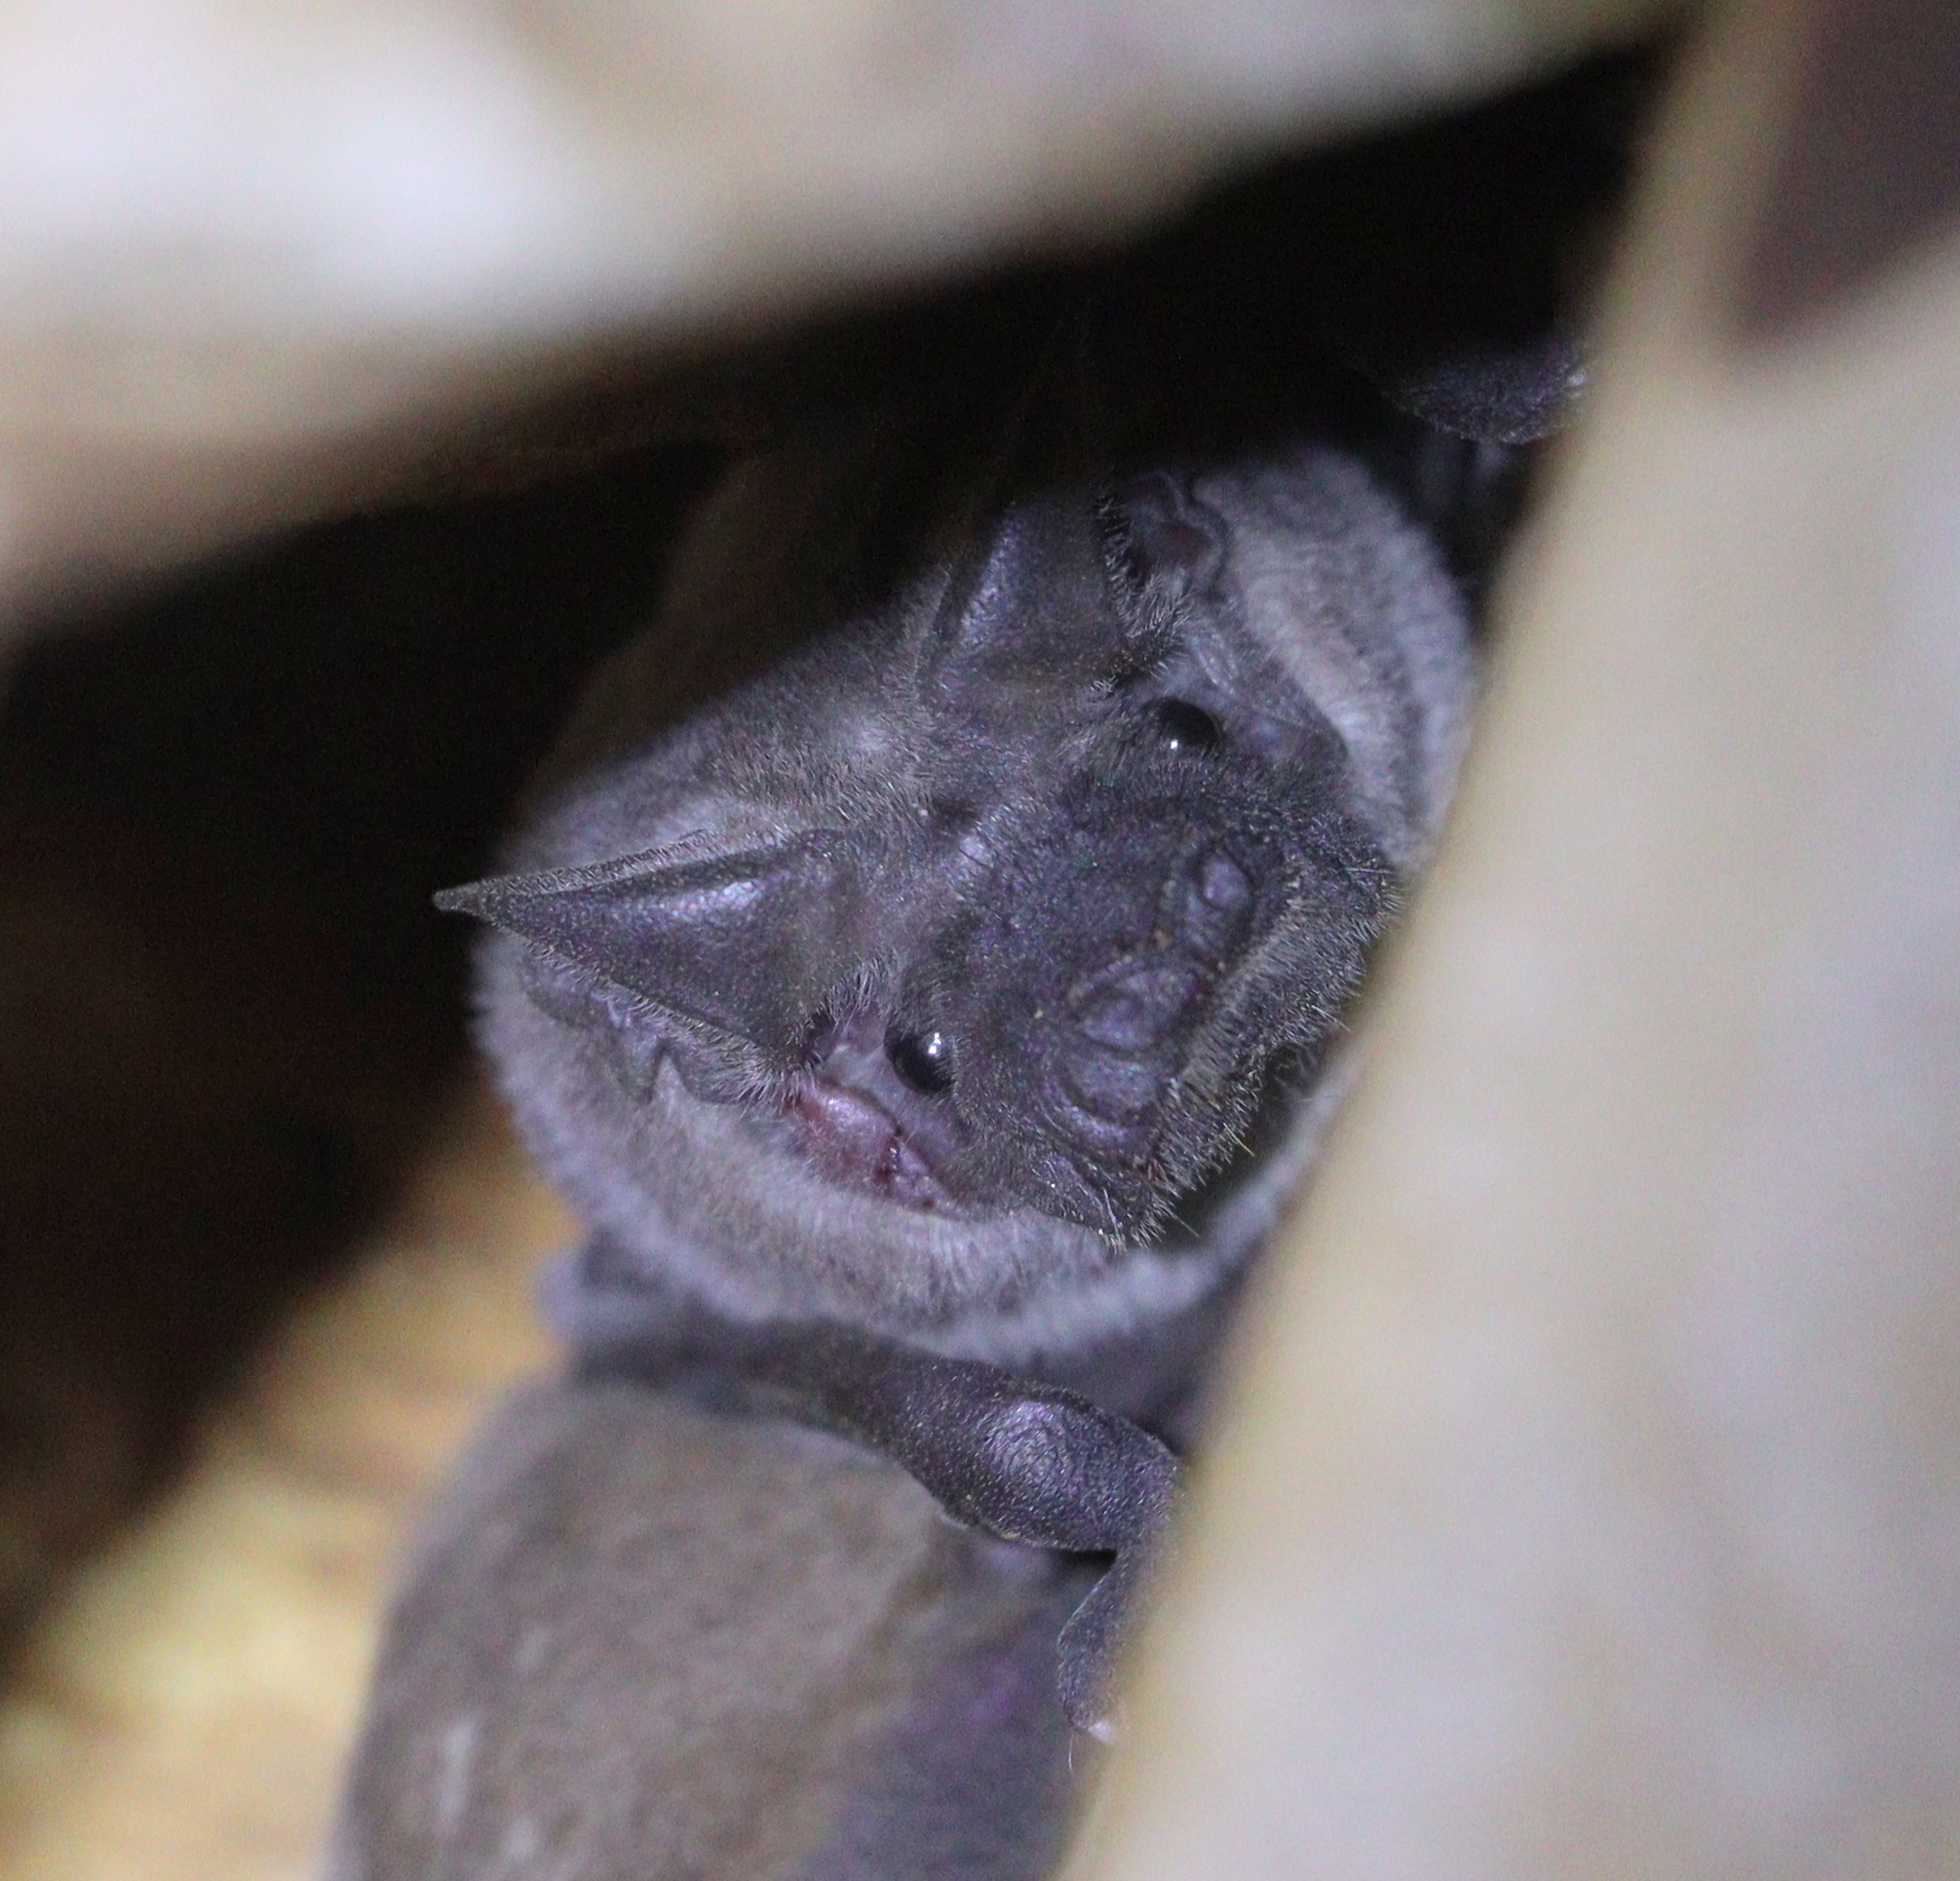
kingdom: Animalia
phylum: Chordata
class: Mammalia
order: Chiroptera
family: Molossidae
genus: Tadarida
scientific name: Tadarida aegyptiaca
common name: Egyptian free-tailed bat
